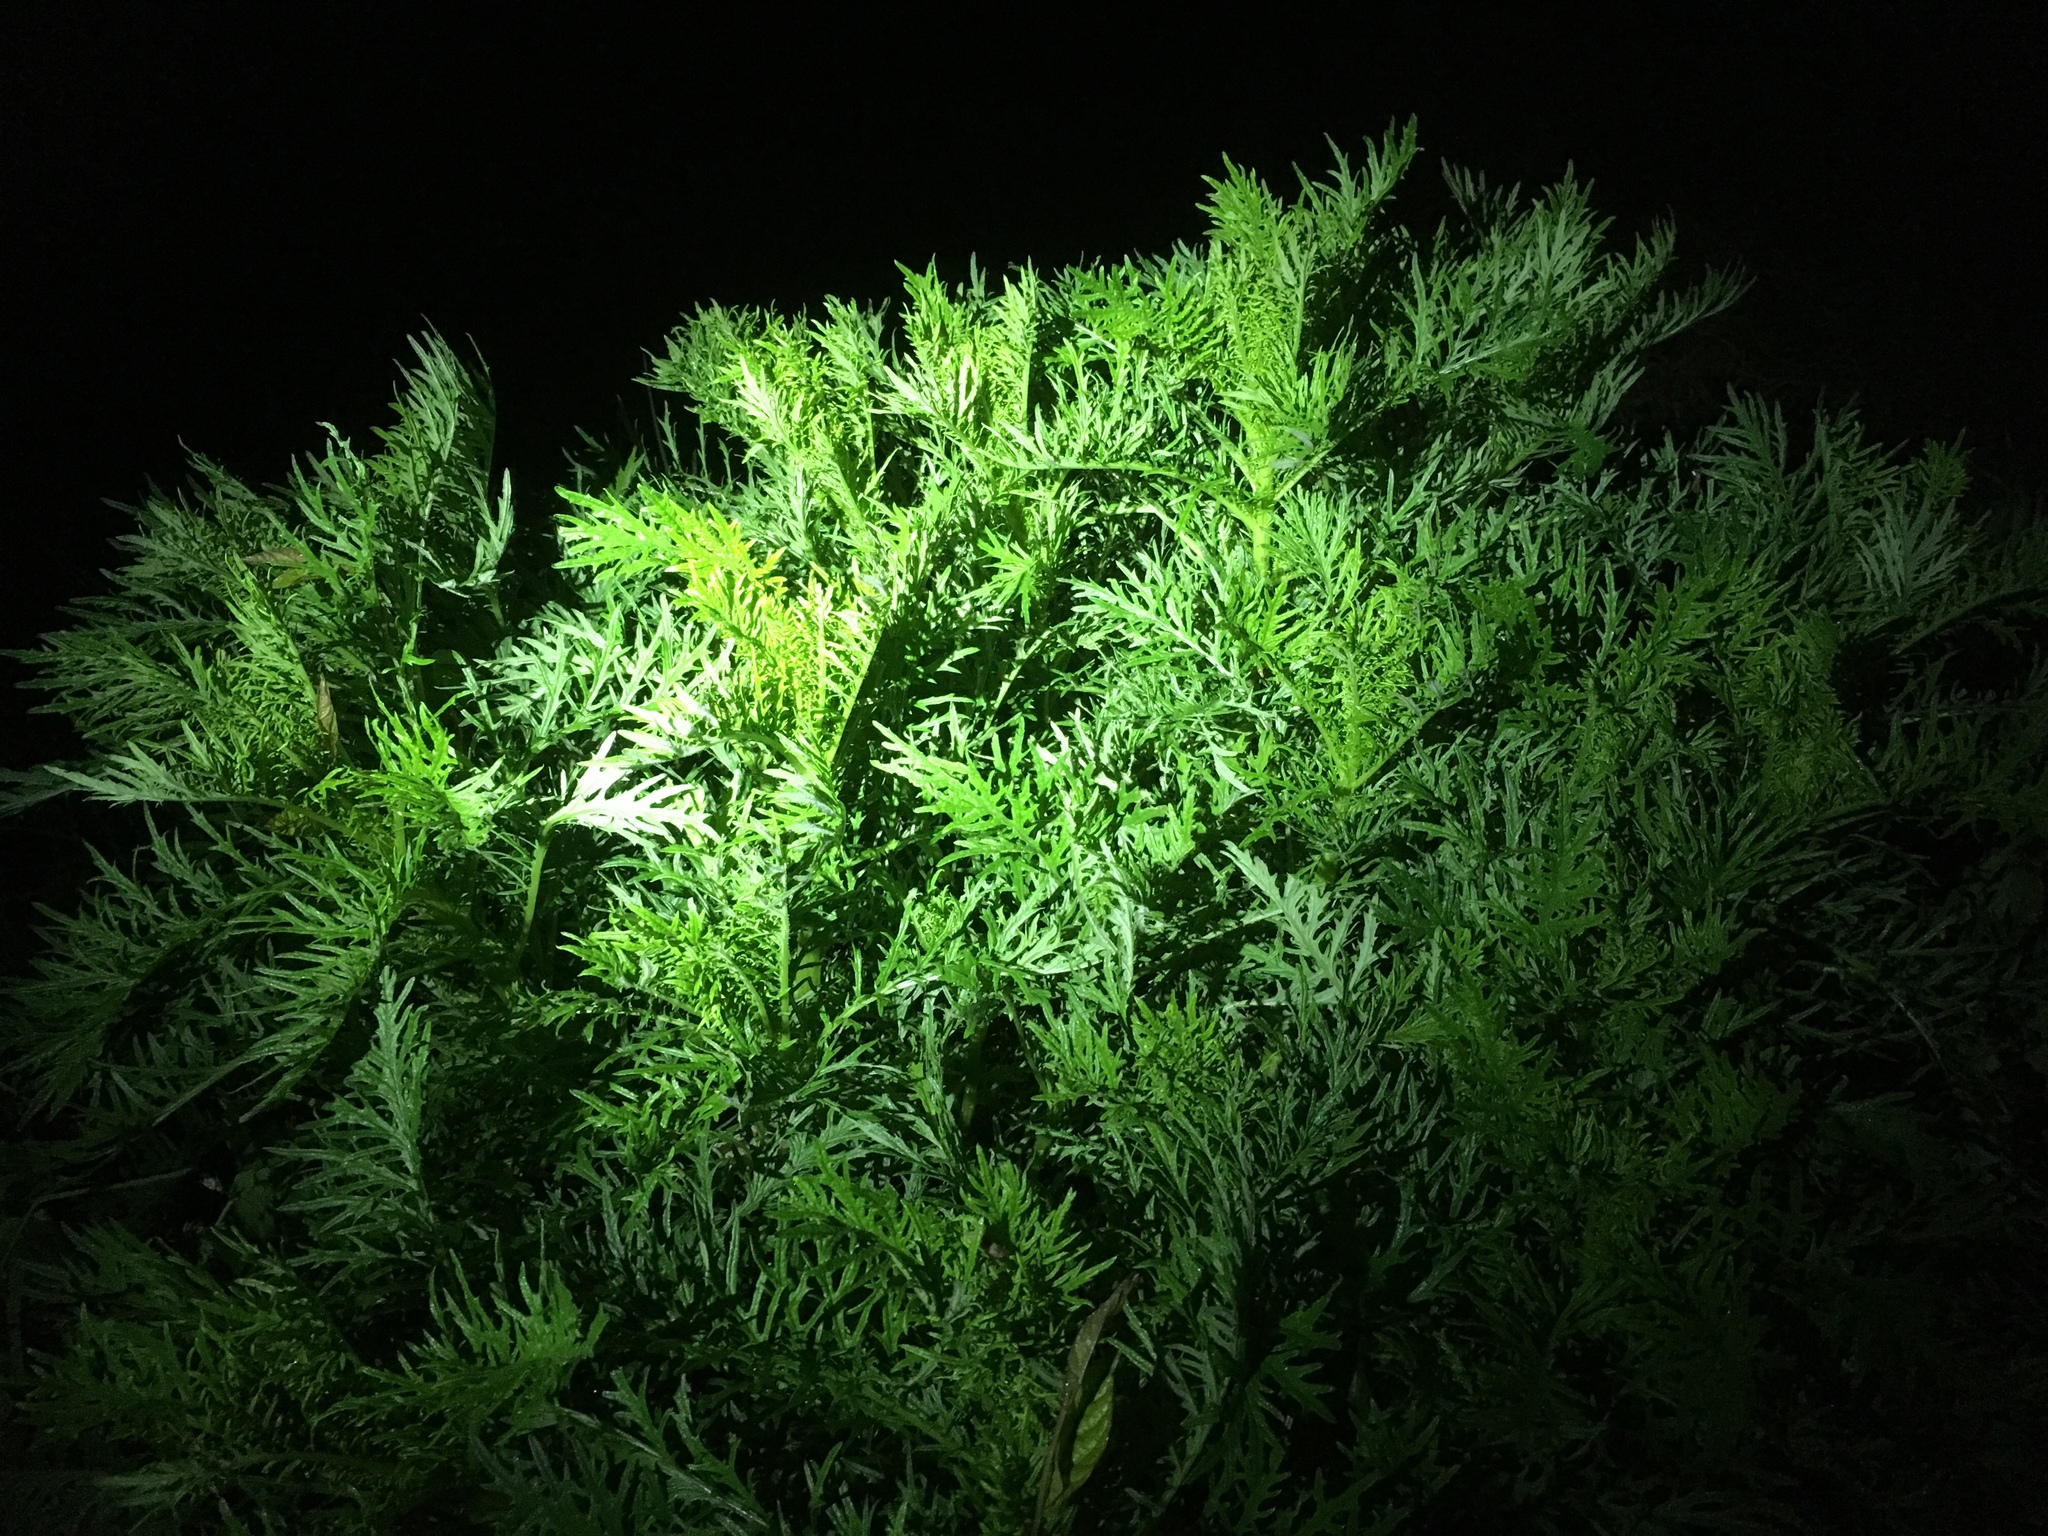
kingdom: Plantae
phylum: Tracheophyta
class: Magnoliopsida
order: Asterales
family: Asteraceae
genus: Senecio
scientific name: Senecio bipinnatisectus
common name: Australian fireweed
